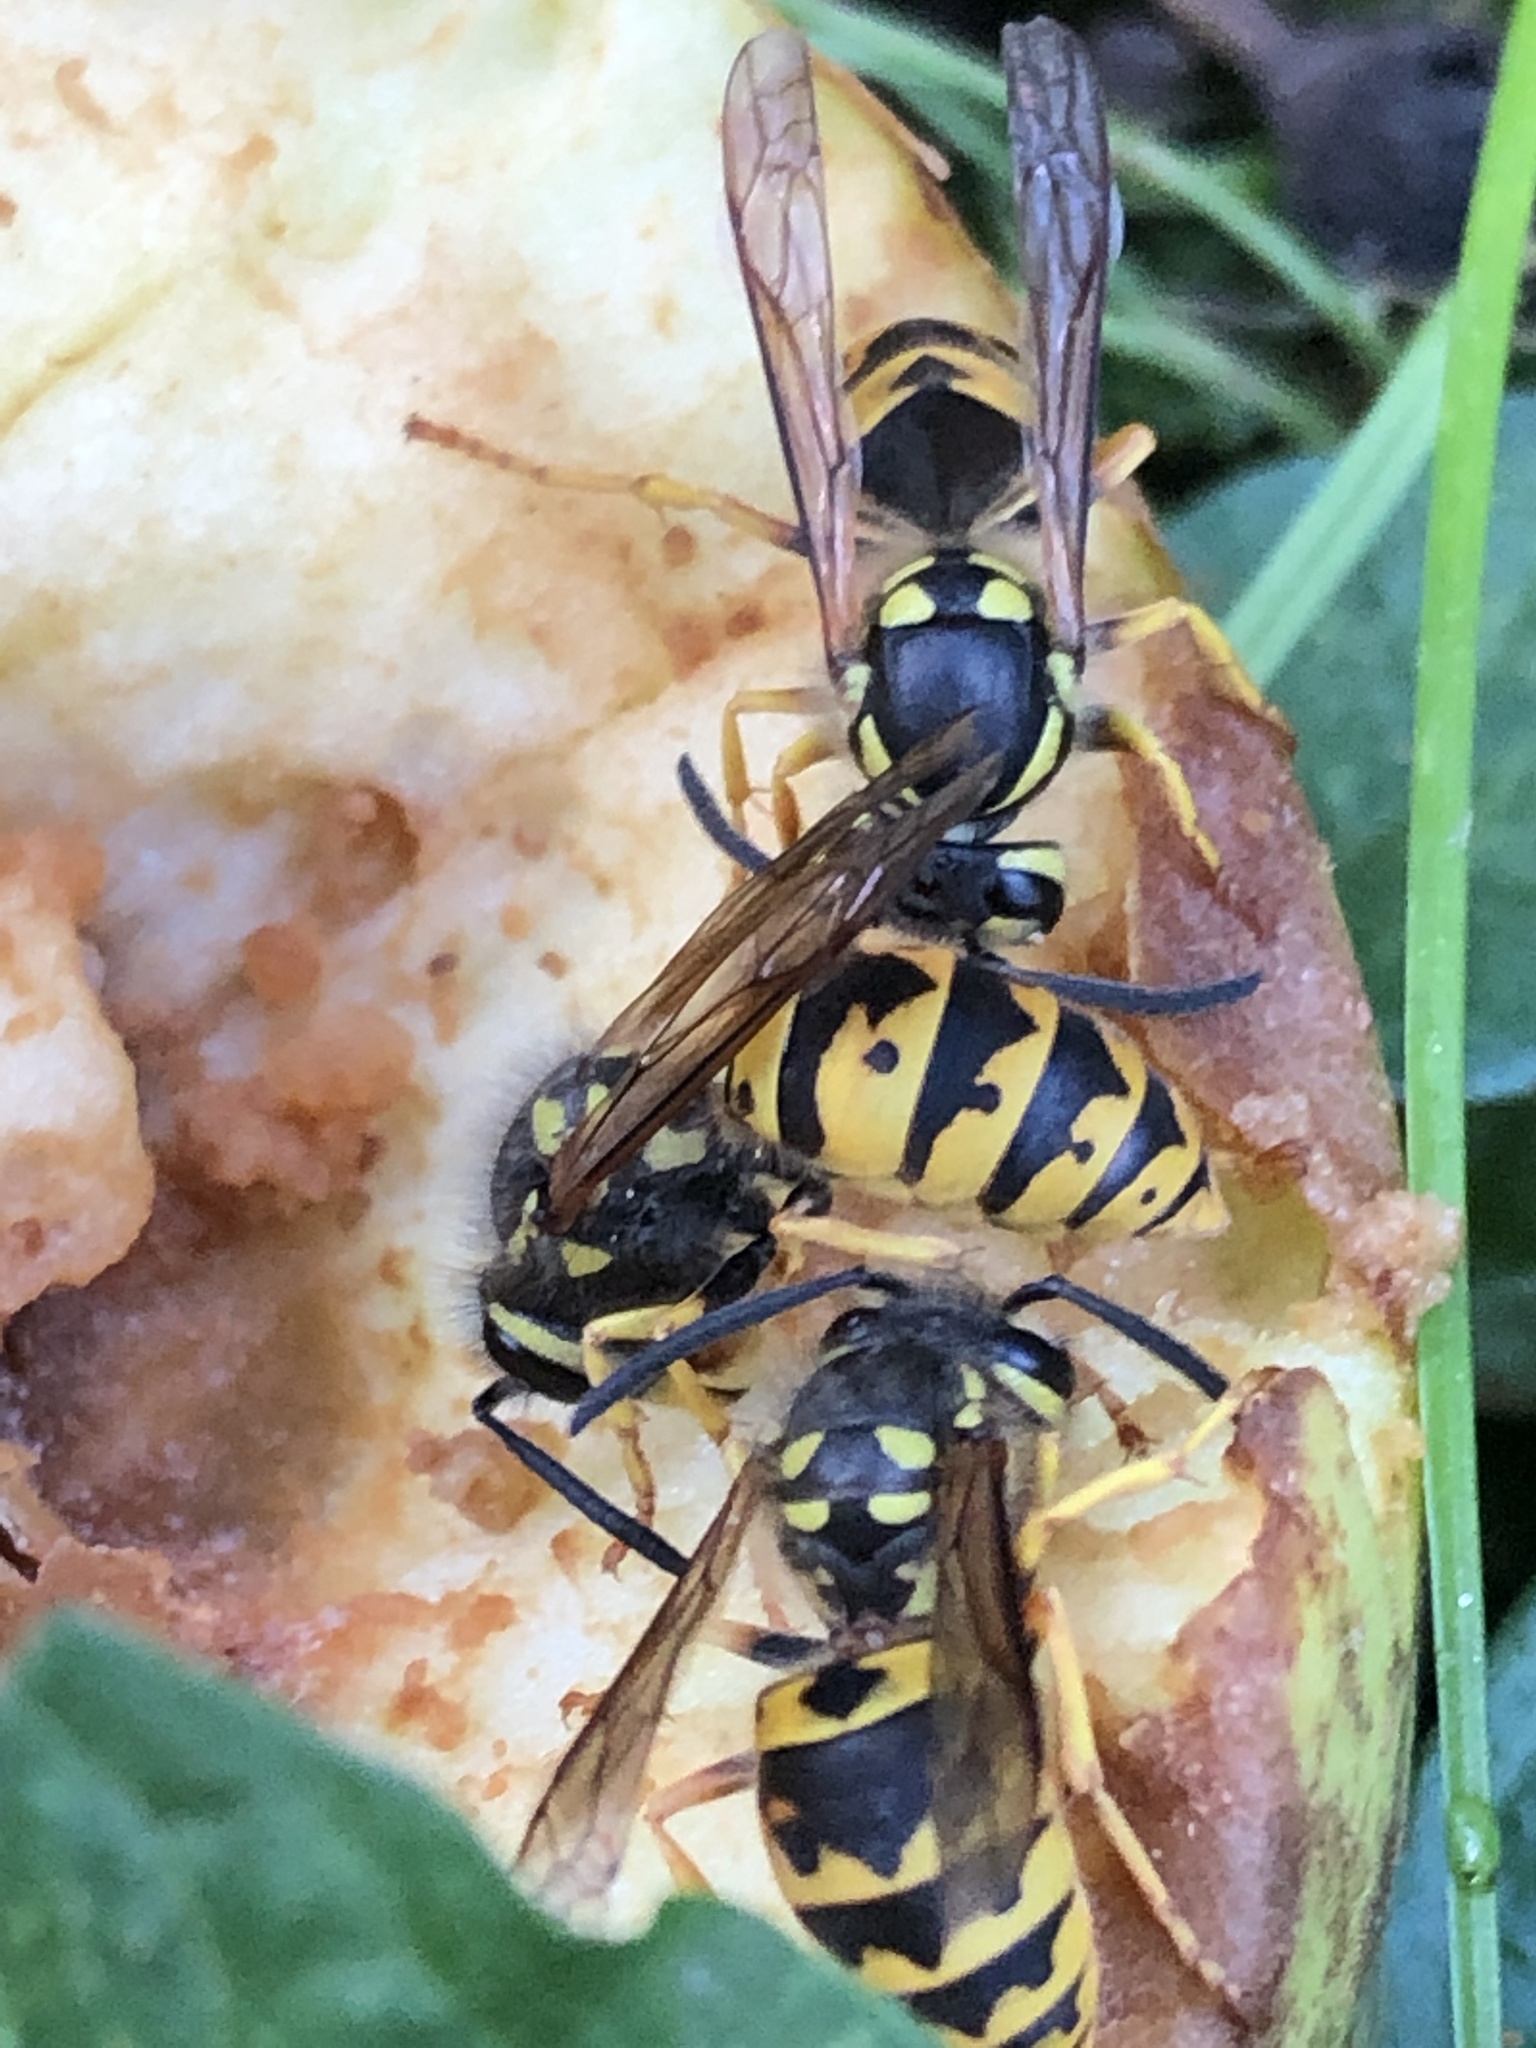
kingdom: Animalia
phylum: Arthropoda
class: Insecta
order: Hymenoptera
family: Vespidae
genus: Vespula
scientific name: Vespula germanica
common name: German wasp
